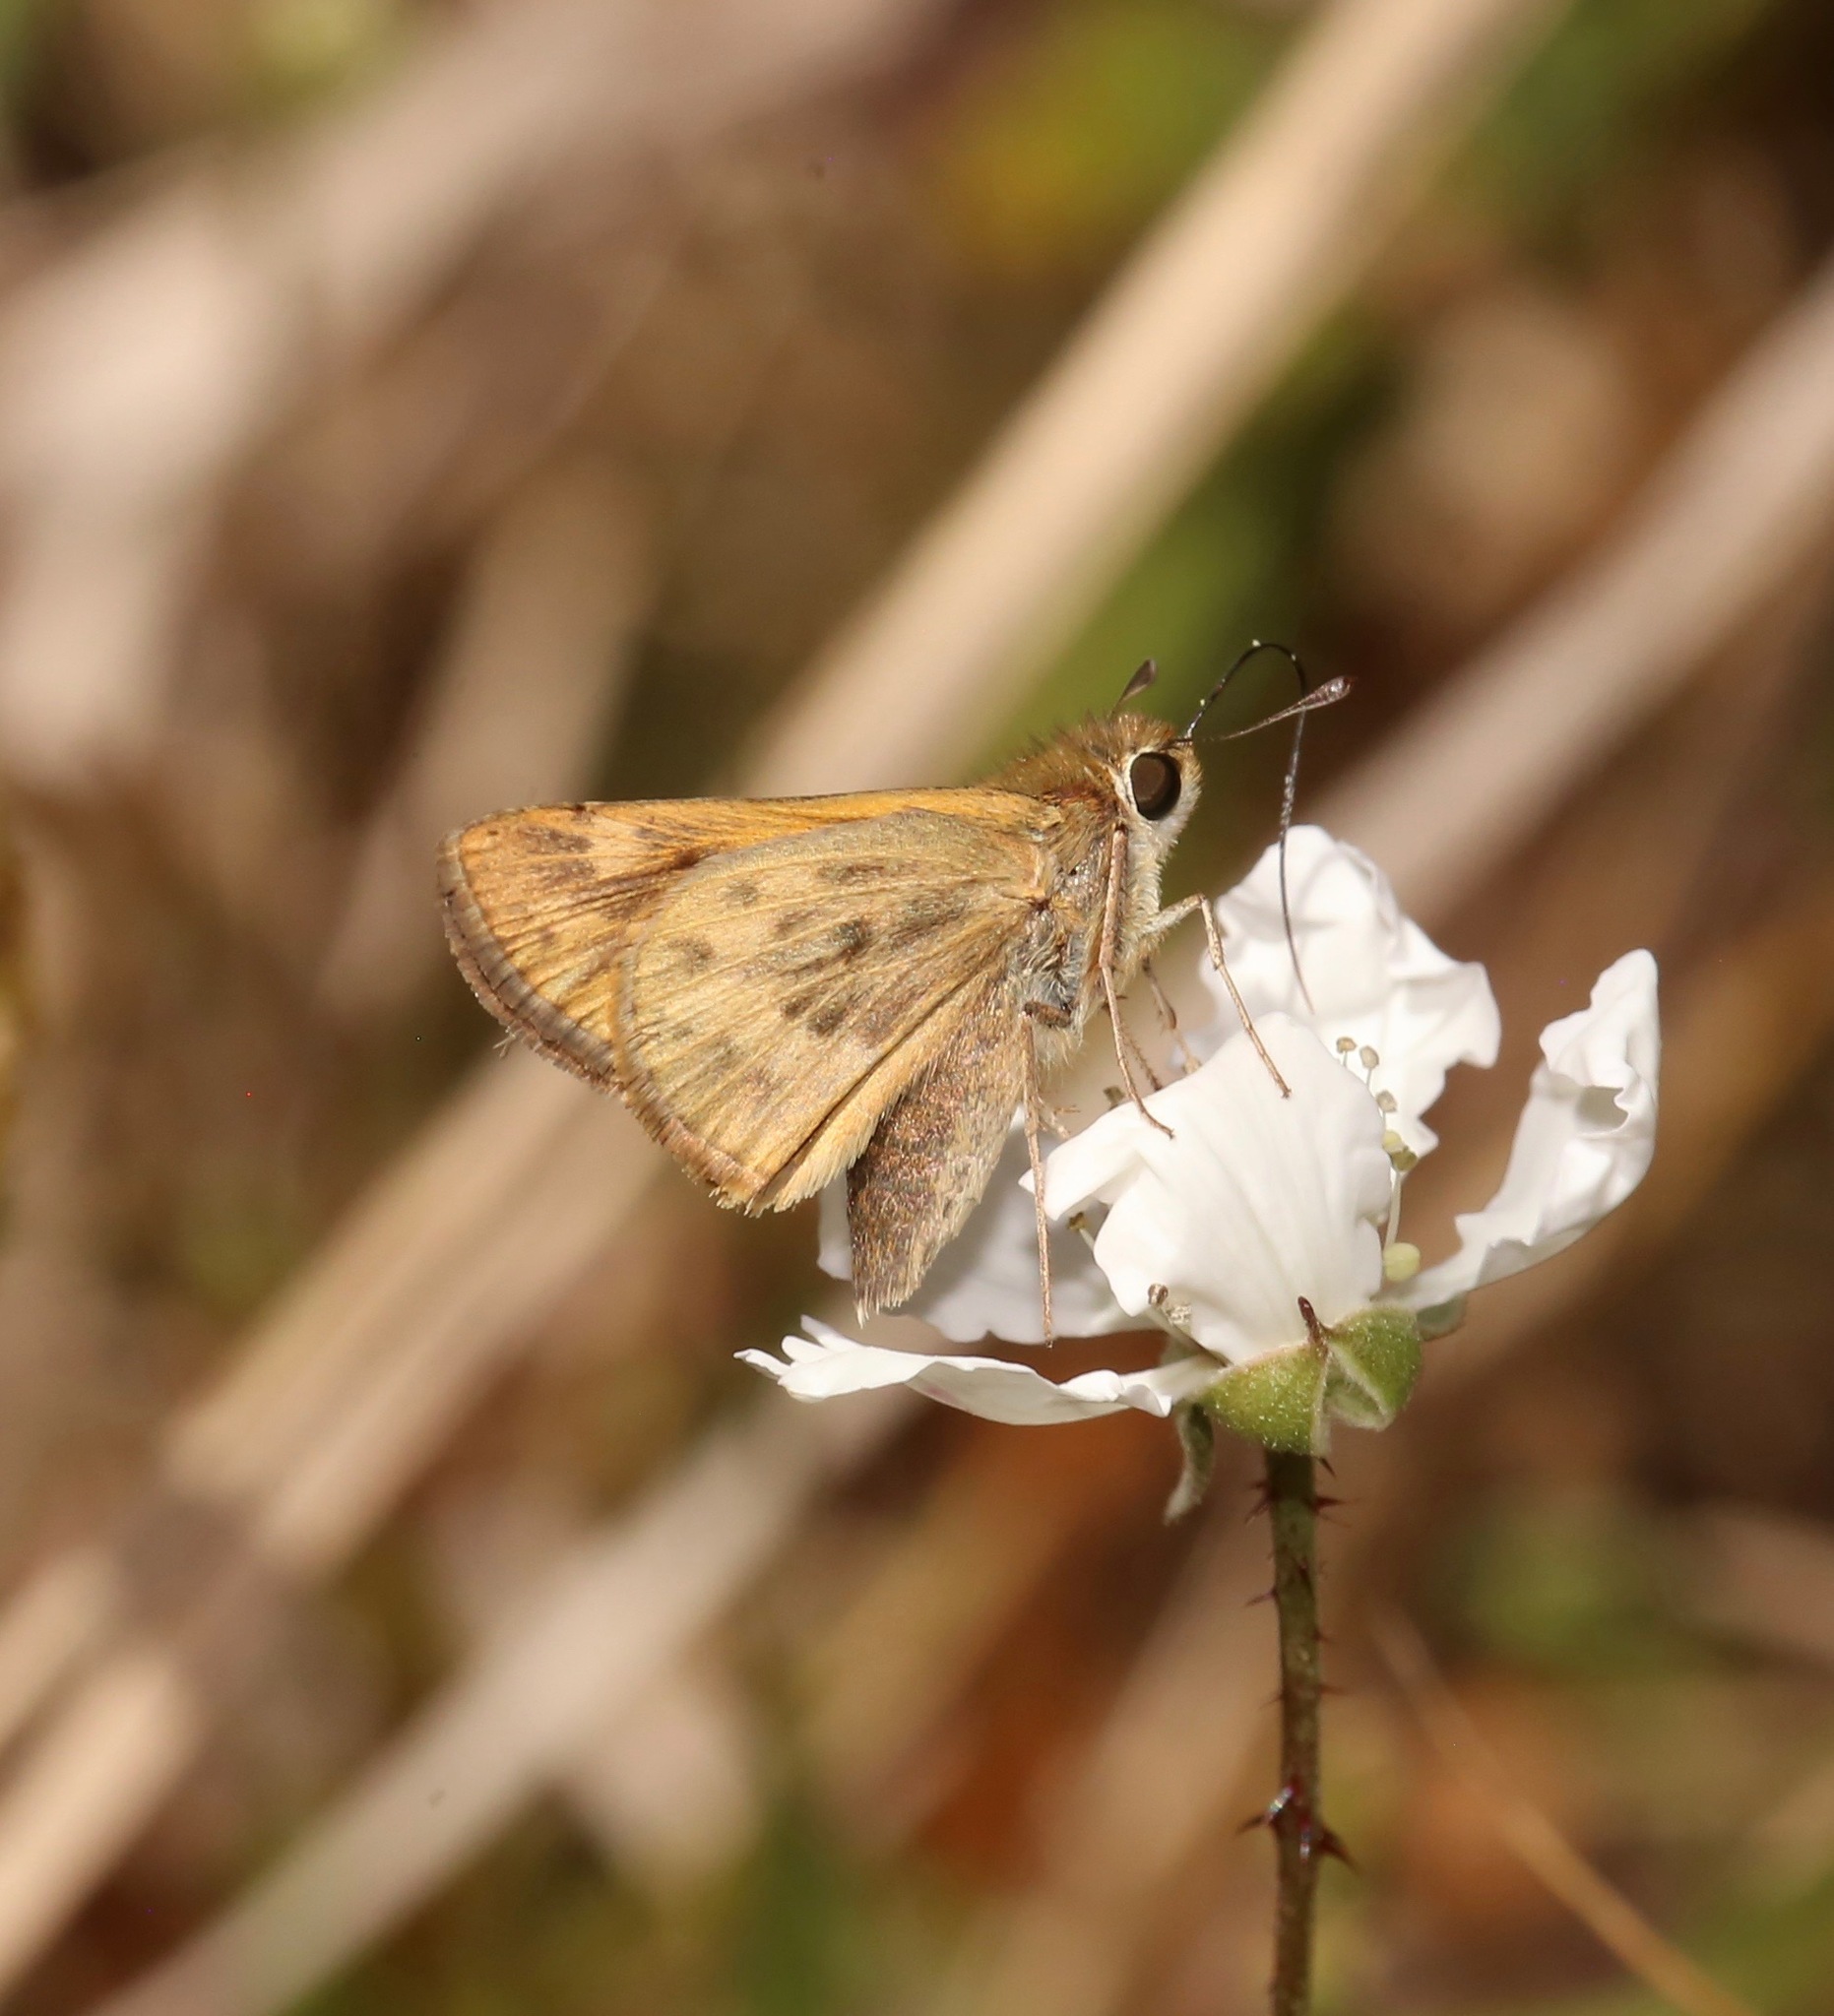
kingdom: Animalia
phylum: Arthropoda
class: Insecta
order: Lepidoptera
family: Hesperiidae
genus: Hylephila
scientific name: Hylephila phyleus
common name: Fiery skipper
